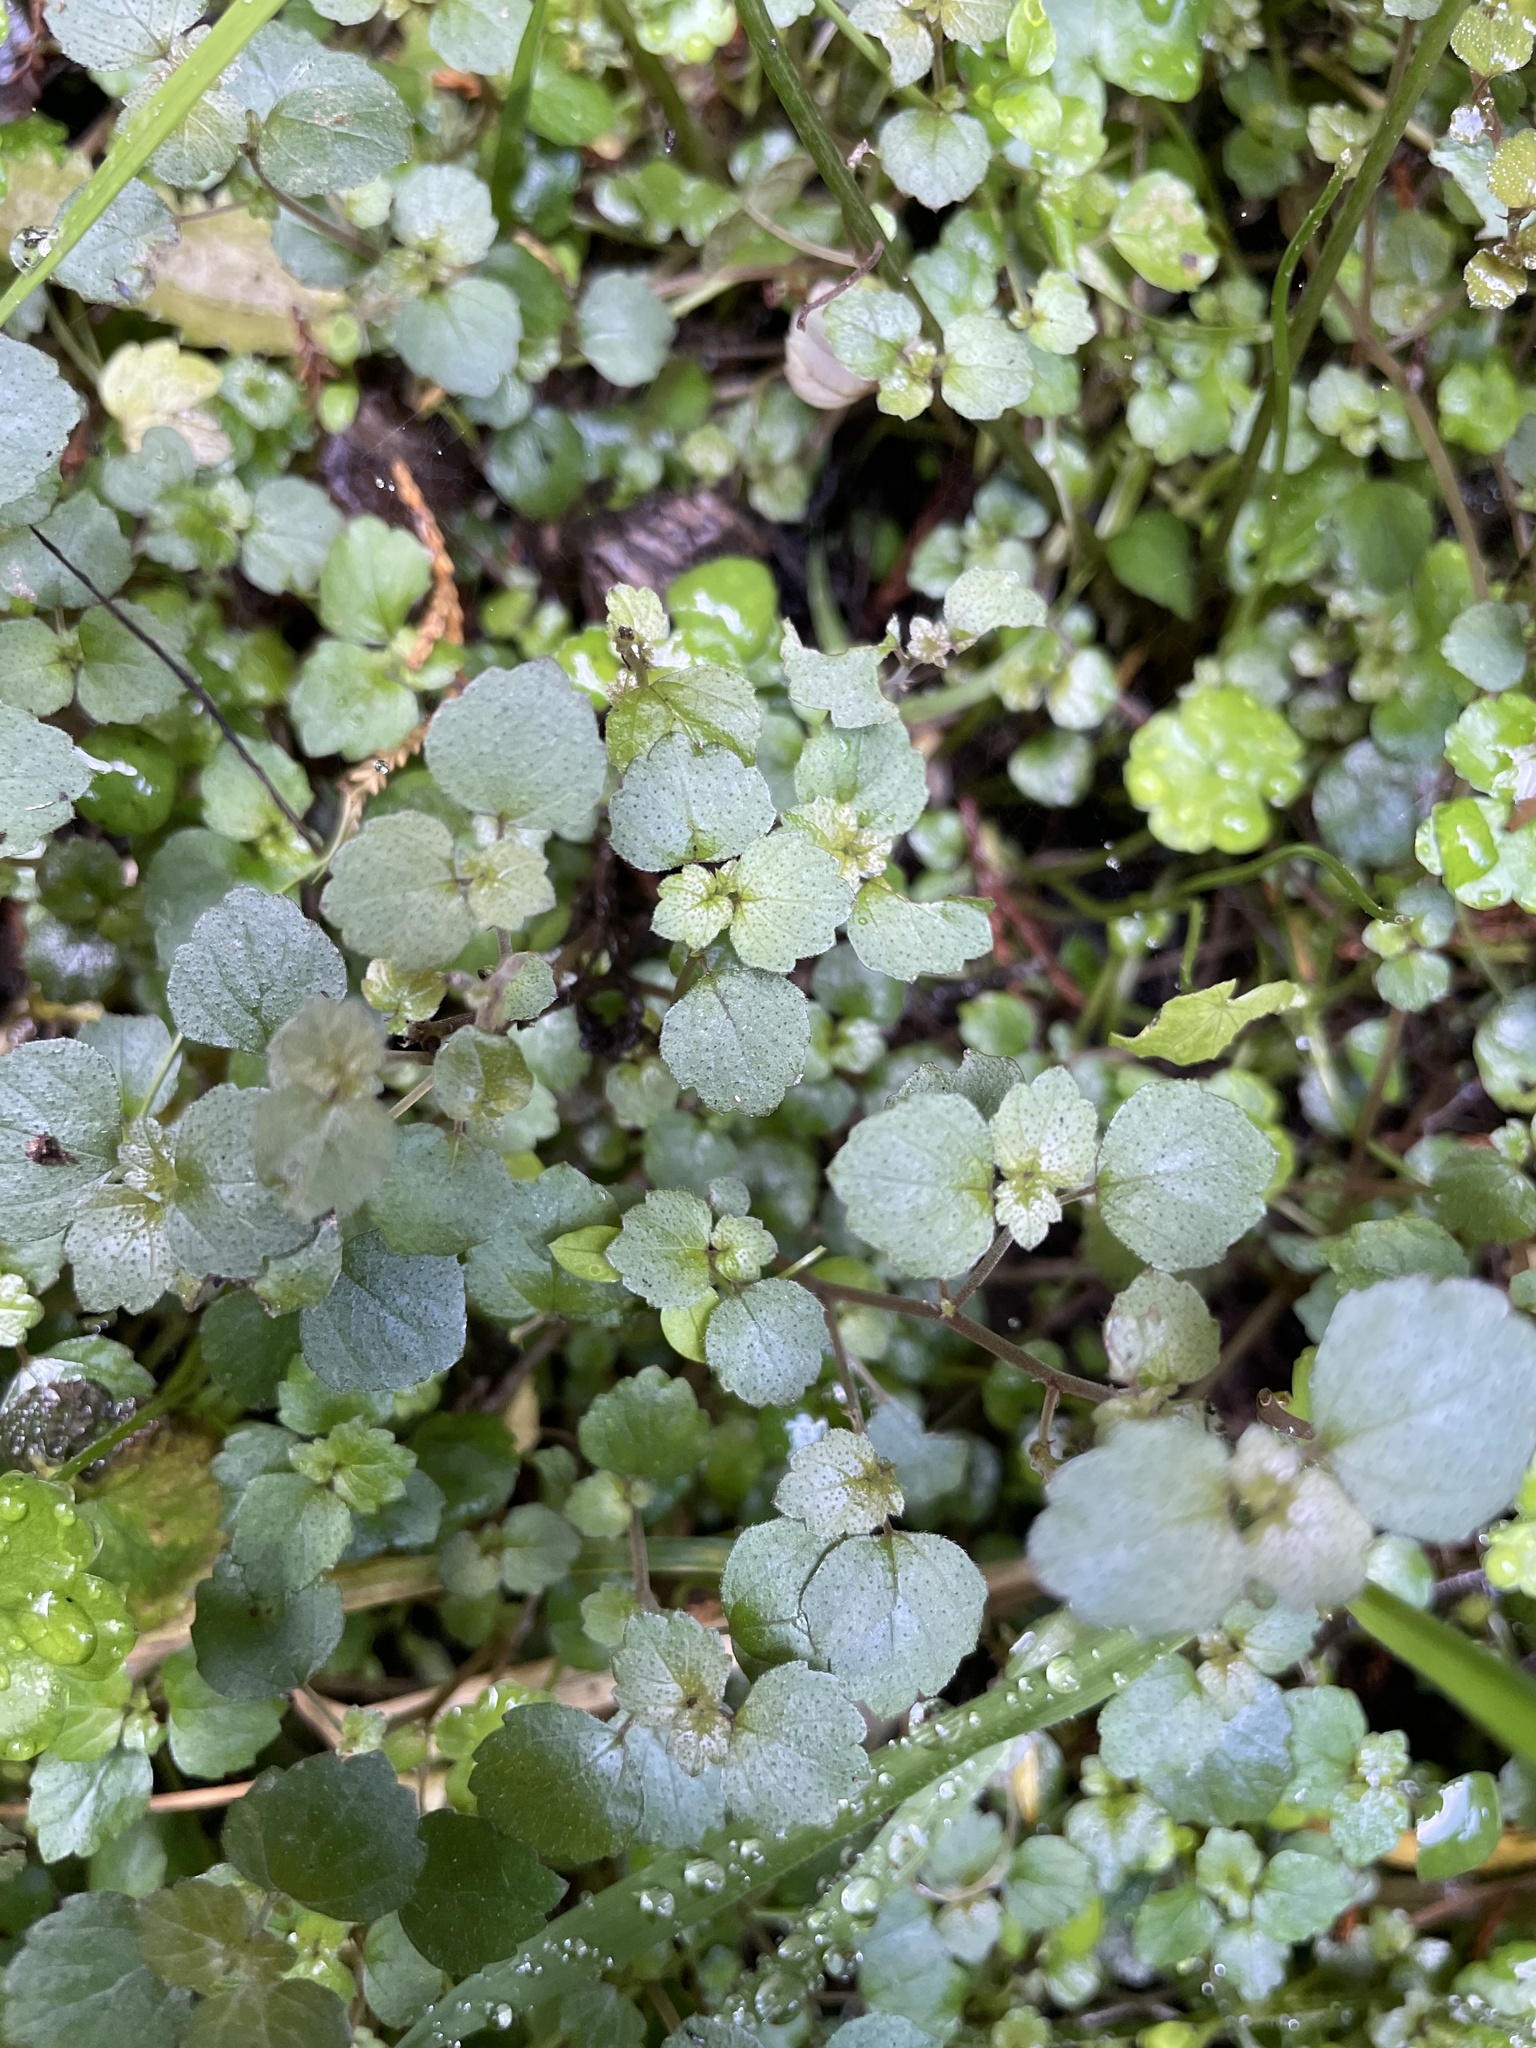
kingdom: Plantae
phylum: Tracheophyta
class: Magnoliopsida
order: Rosales
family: Urticaceae
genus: Australina
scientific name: Australina pusilla
